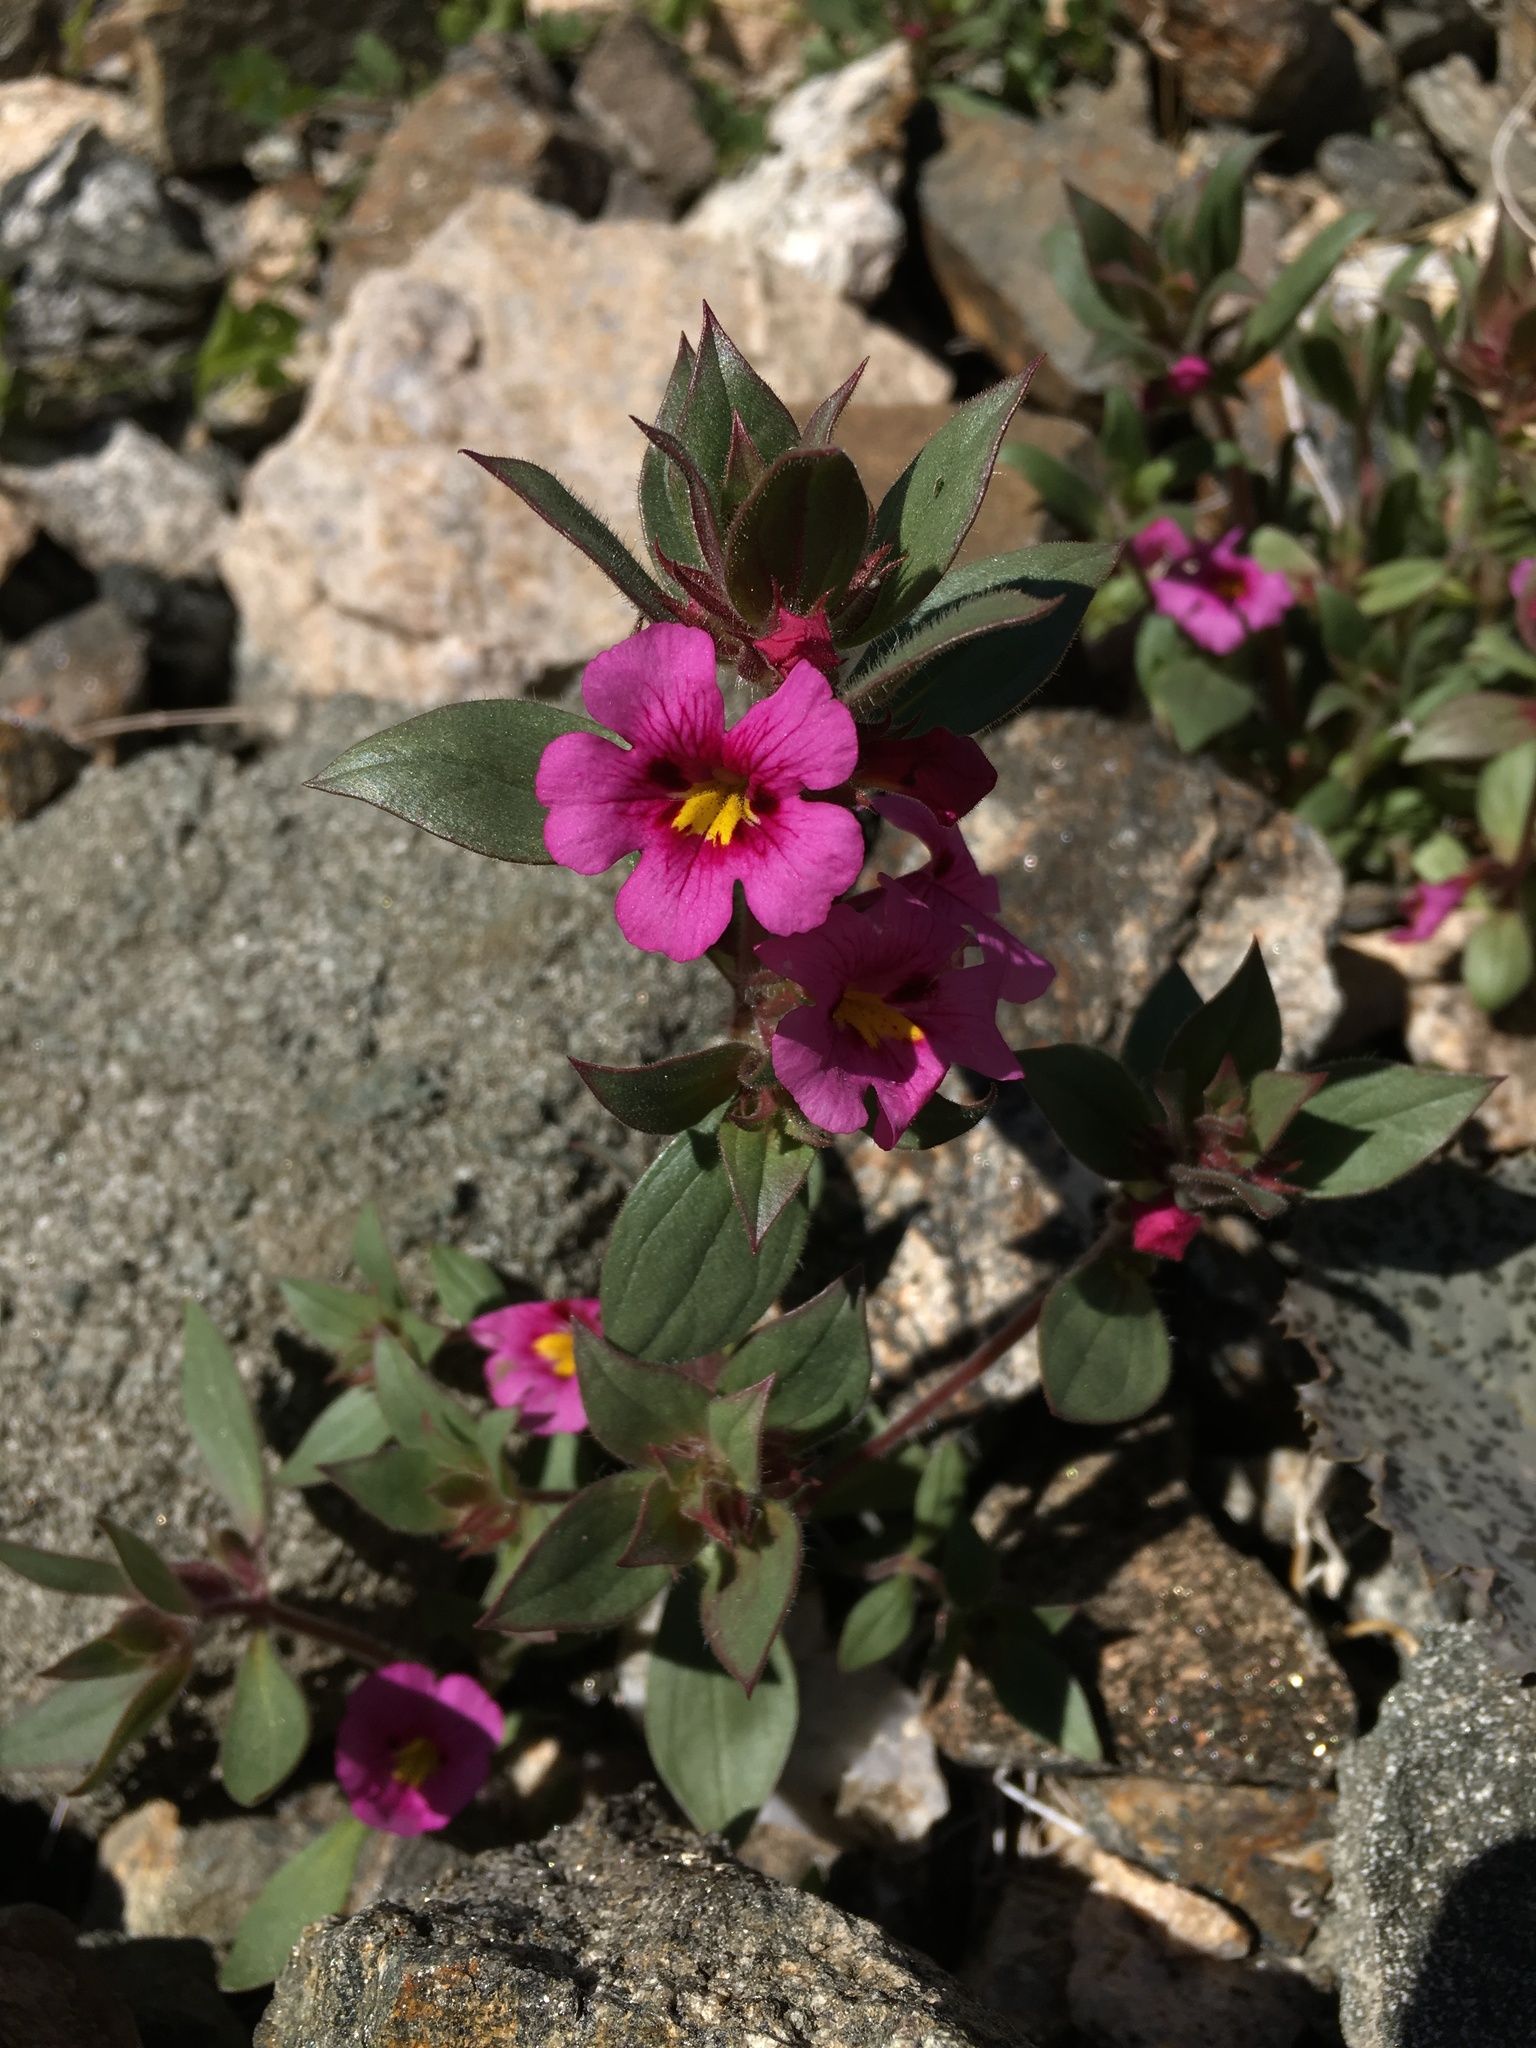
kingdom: Plantae
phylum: Tracheophyta
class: Magnoliopsida
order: Lamiales
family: Phrymaceae
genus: Diplacus
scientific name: Diplacus bigelovii
